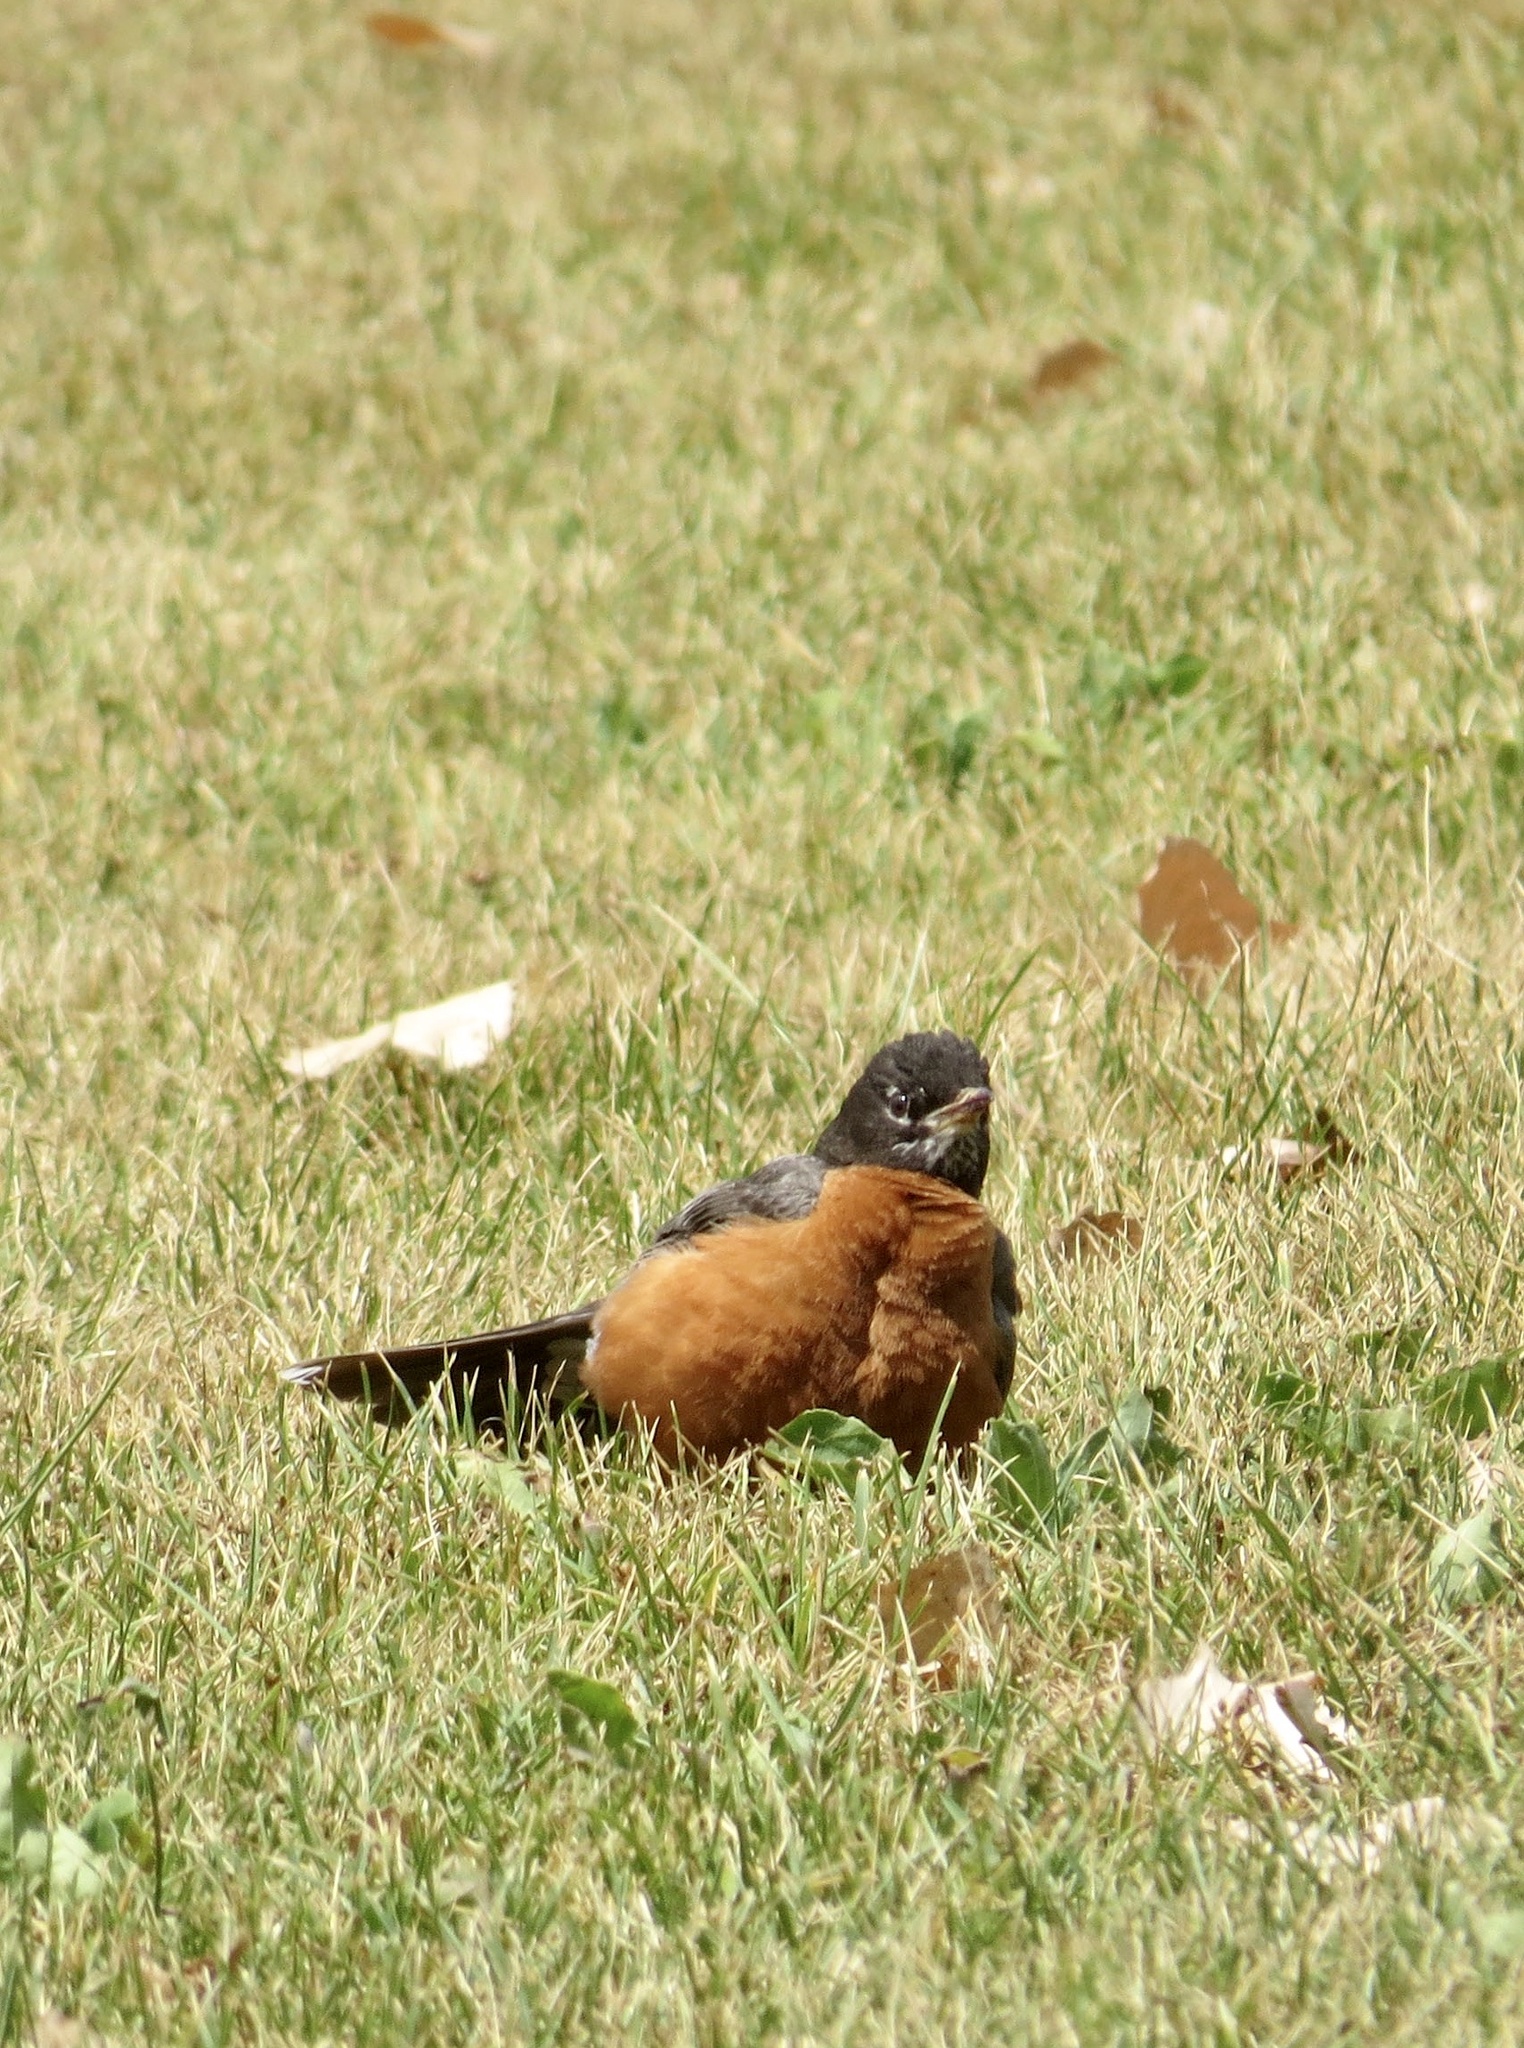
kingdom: Animalia
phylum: Chordata
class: Aves
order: Passeriformes
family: Turdidae
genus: Turdus
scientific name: Turdus migratorius
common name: American robin
